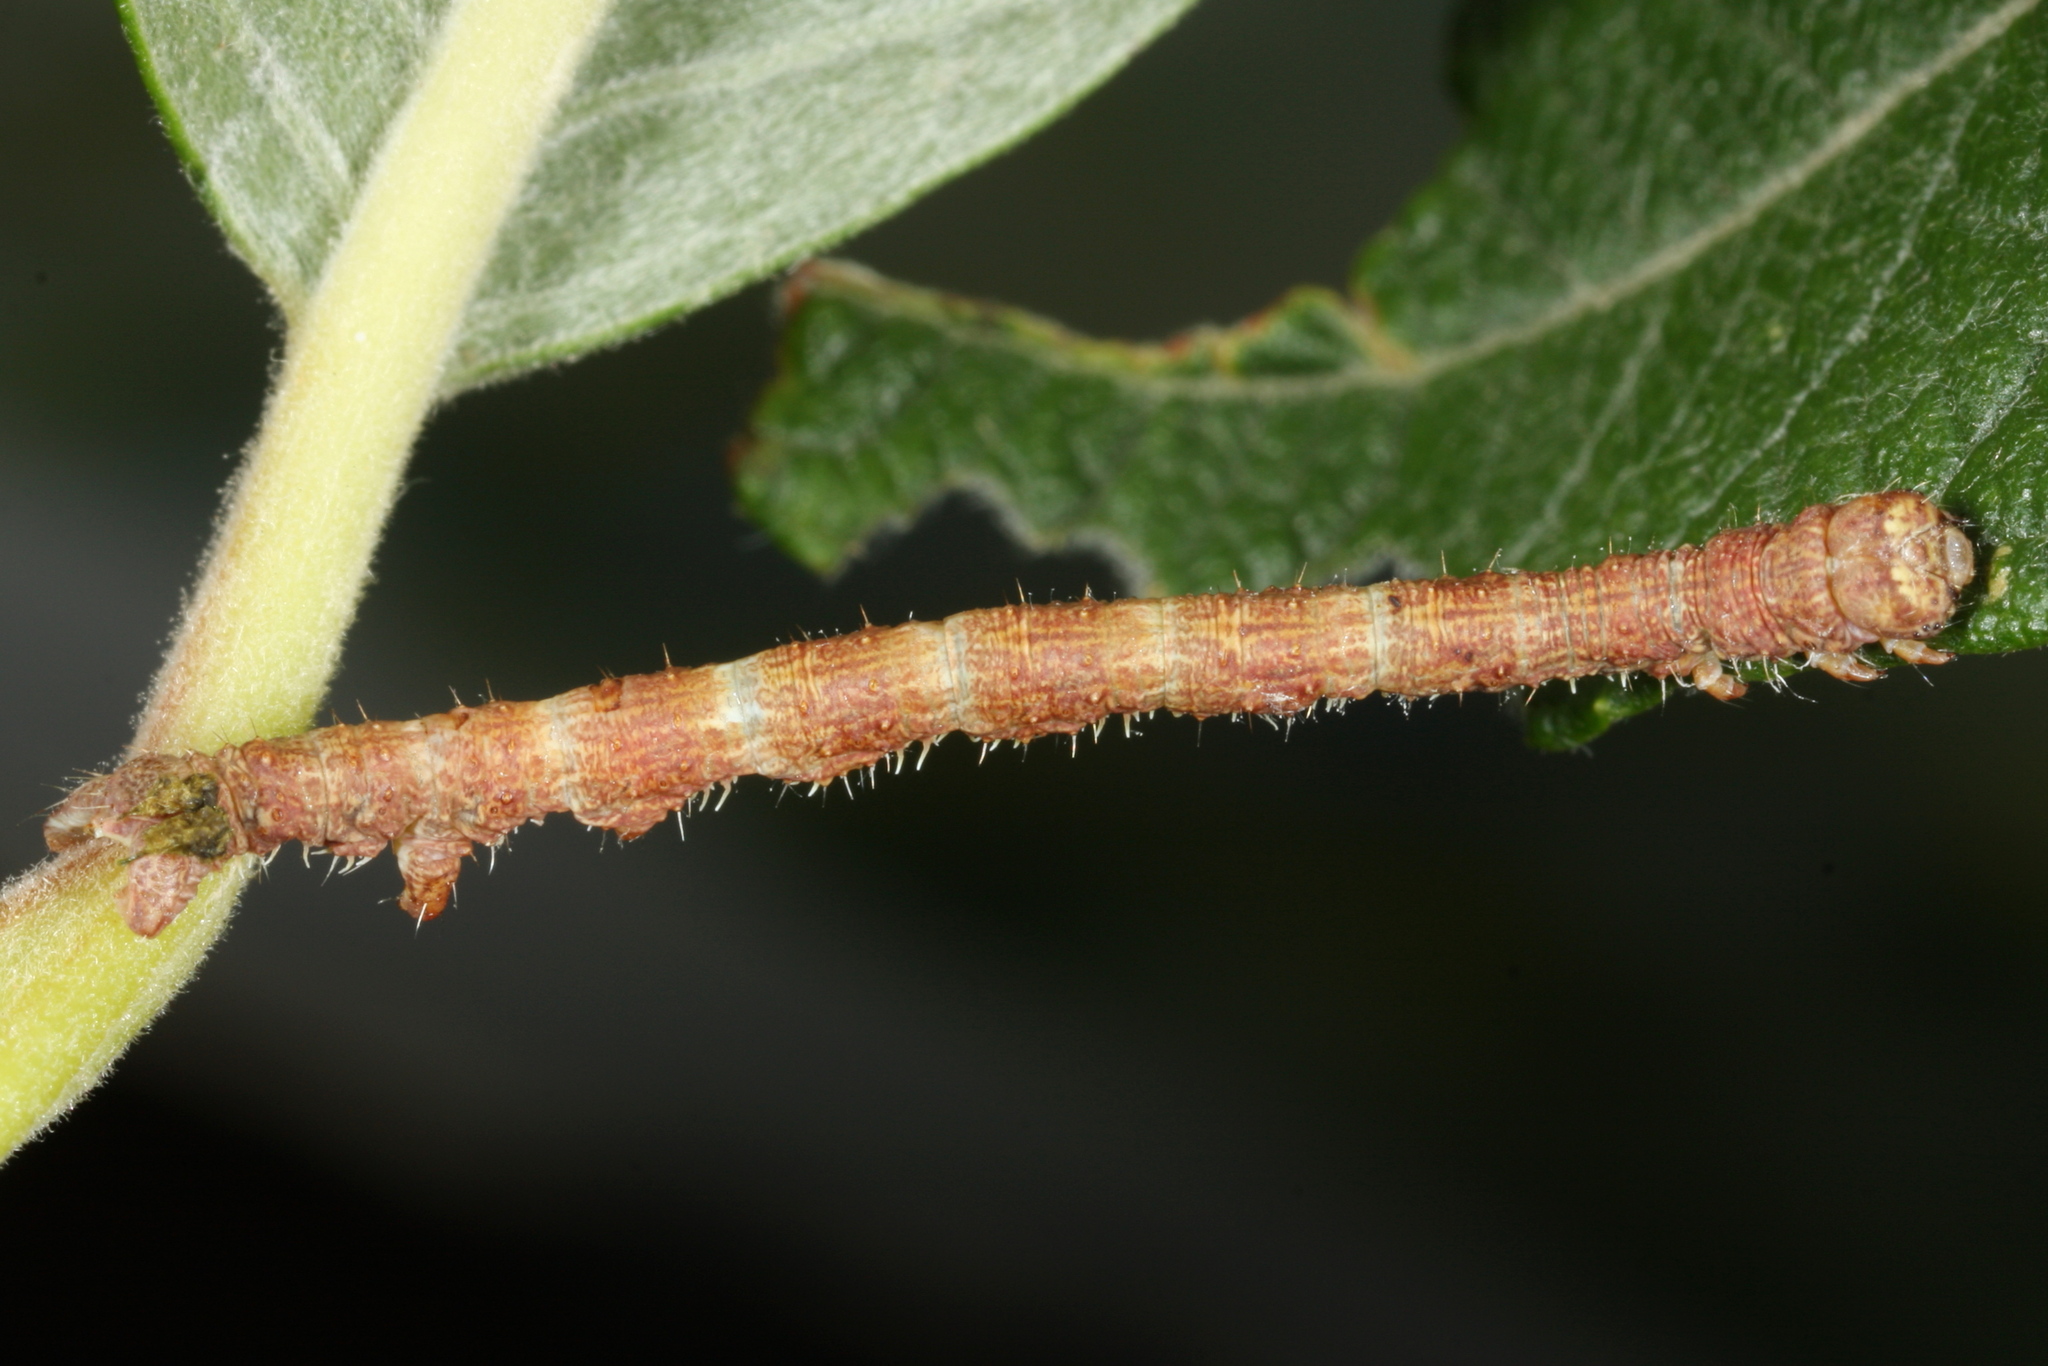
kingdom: Animalia
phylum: Arthropoda
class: Insecta
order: Lepidoptera
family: Geometridae
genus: Campaea
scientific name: Campaea margaritaria
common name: Light emerald
